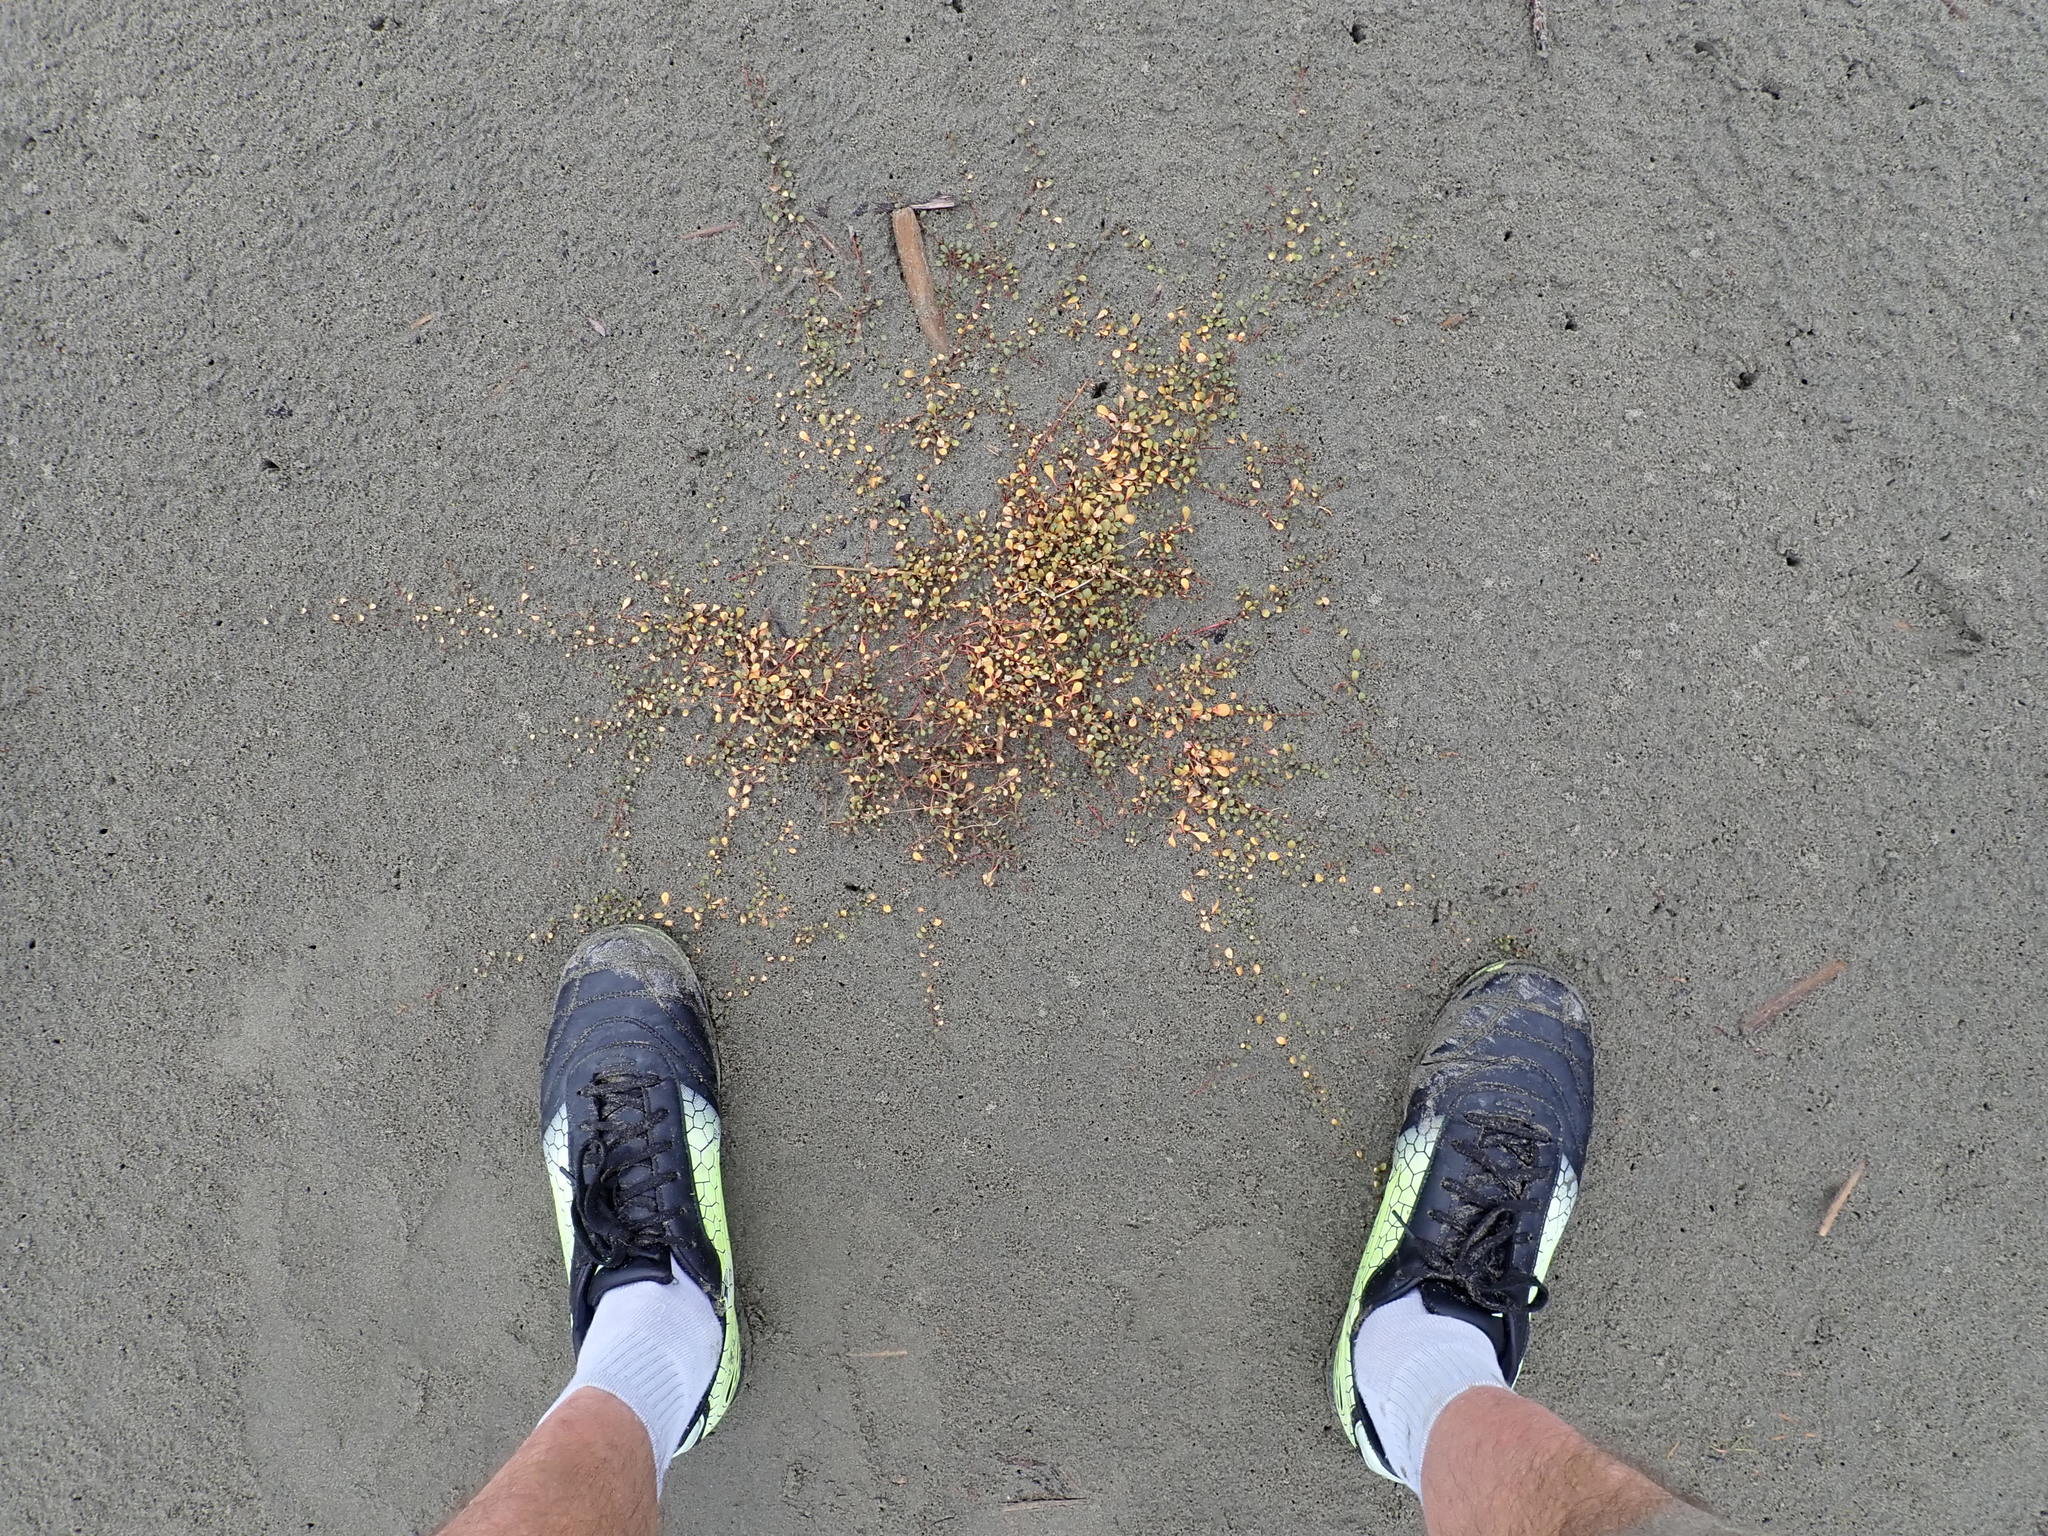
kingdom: Plantae
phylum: Tracheophyta
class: Magnoliopsida
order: Ericales
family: Primulaceae
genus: Samolus
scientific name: Samolus repens
